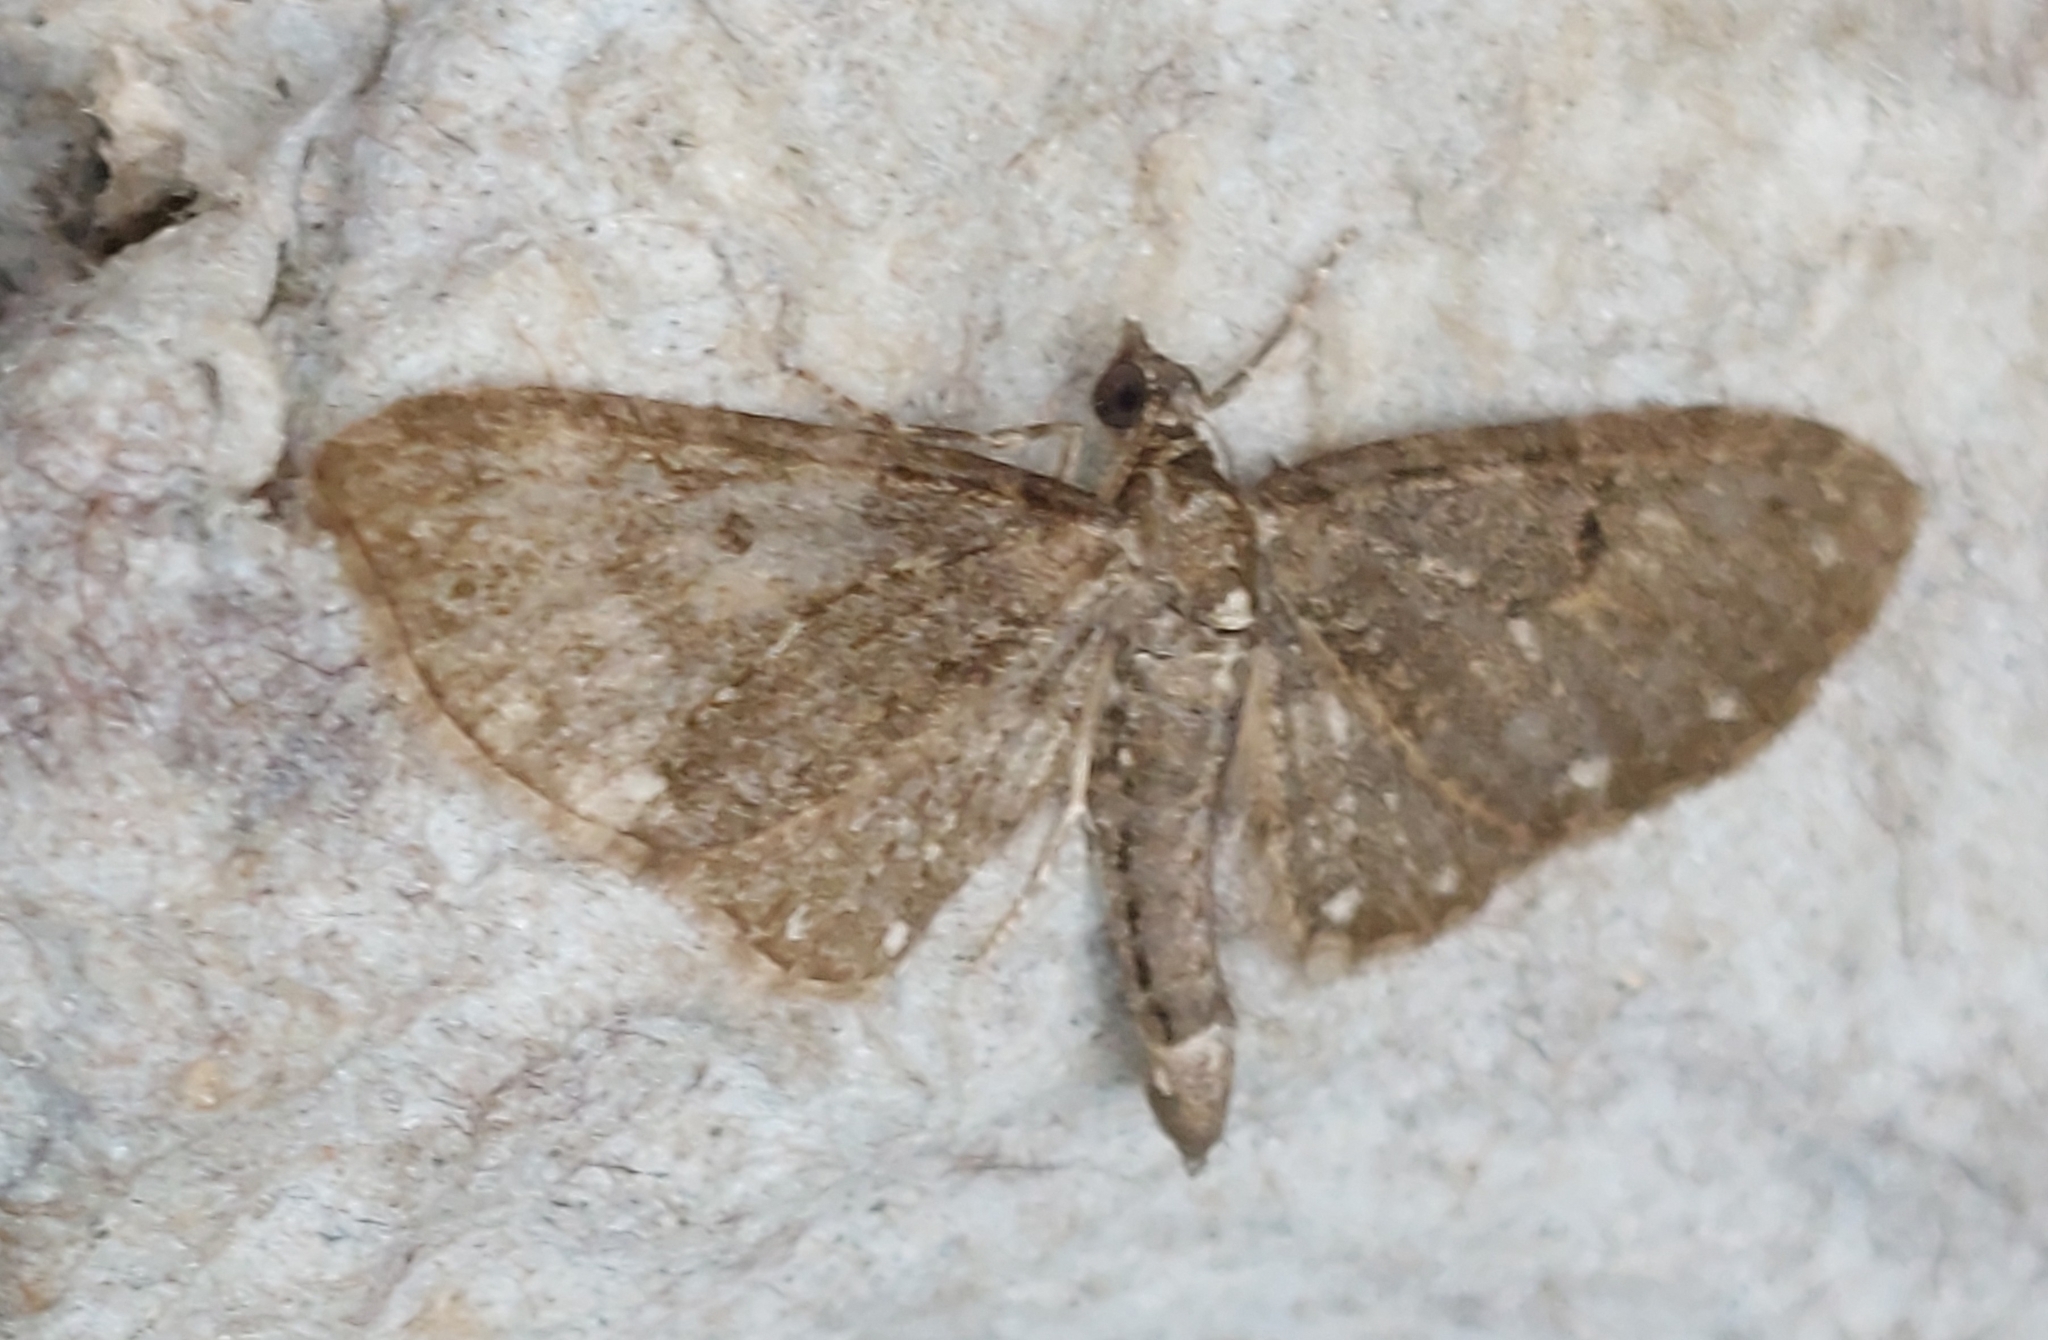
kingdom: Animalia
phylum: Arthropoda
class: Insecta
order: Lepidoptera
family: Geometridae
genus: Eupithecia
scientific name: Eupithecia tripunctaria
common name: White-spotted pug
